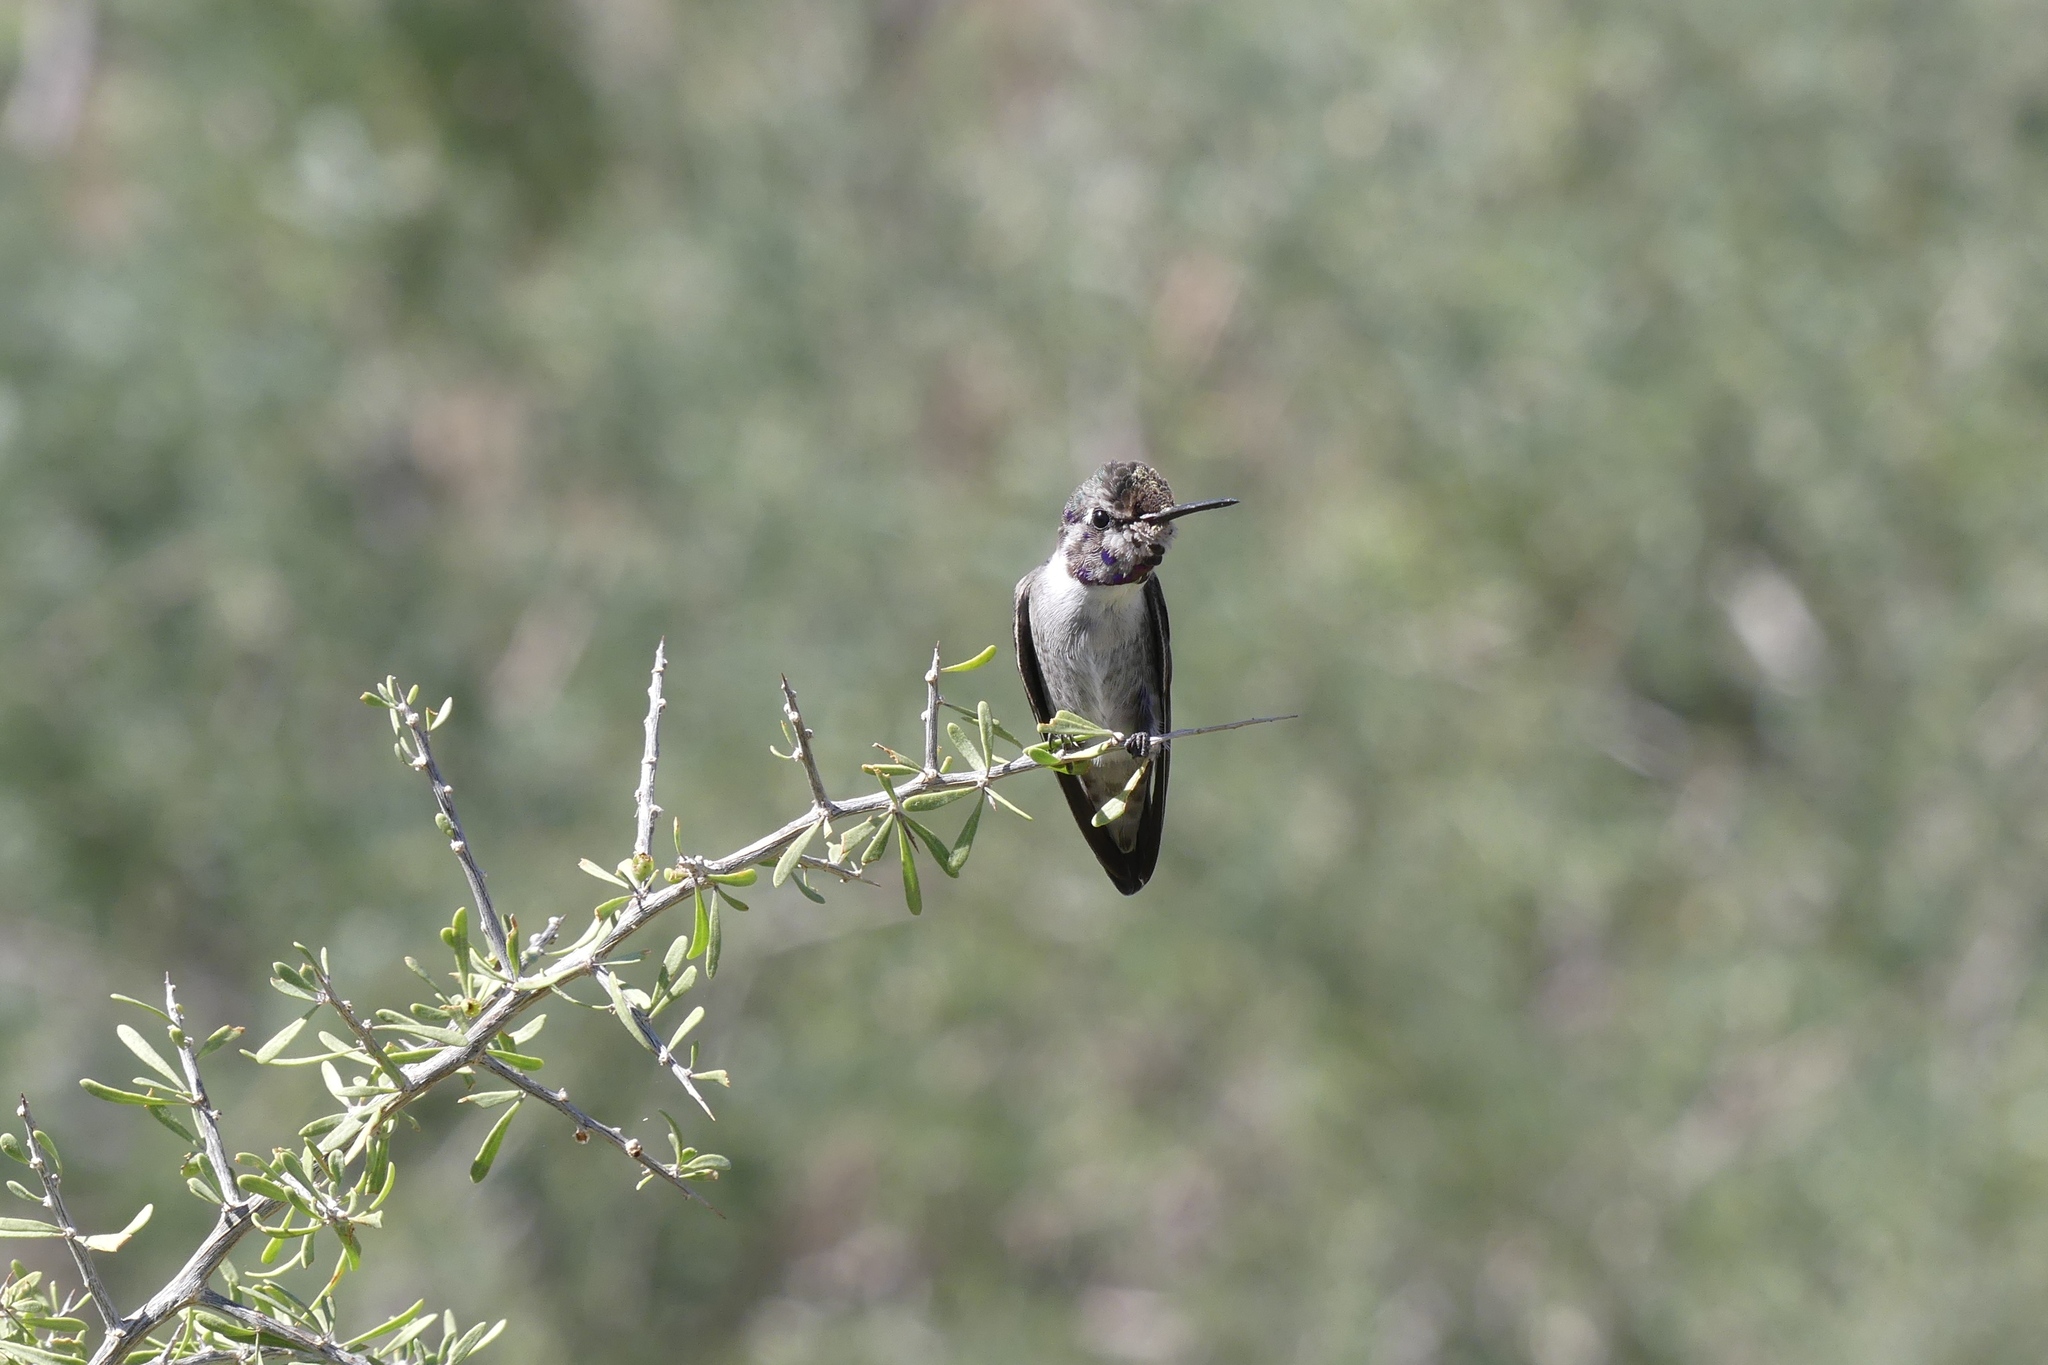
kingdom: Animalia
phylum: Chordata
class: Aves
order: Apodiformes
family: Trochilidae
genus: Calypte
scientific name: Calypte costae
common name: Costa's hummingbird
